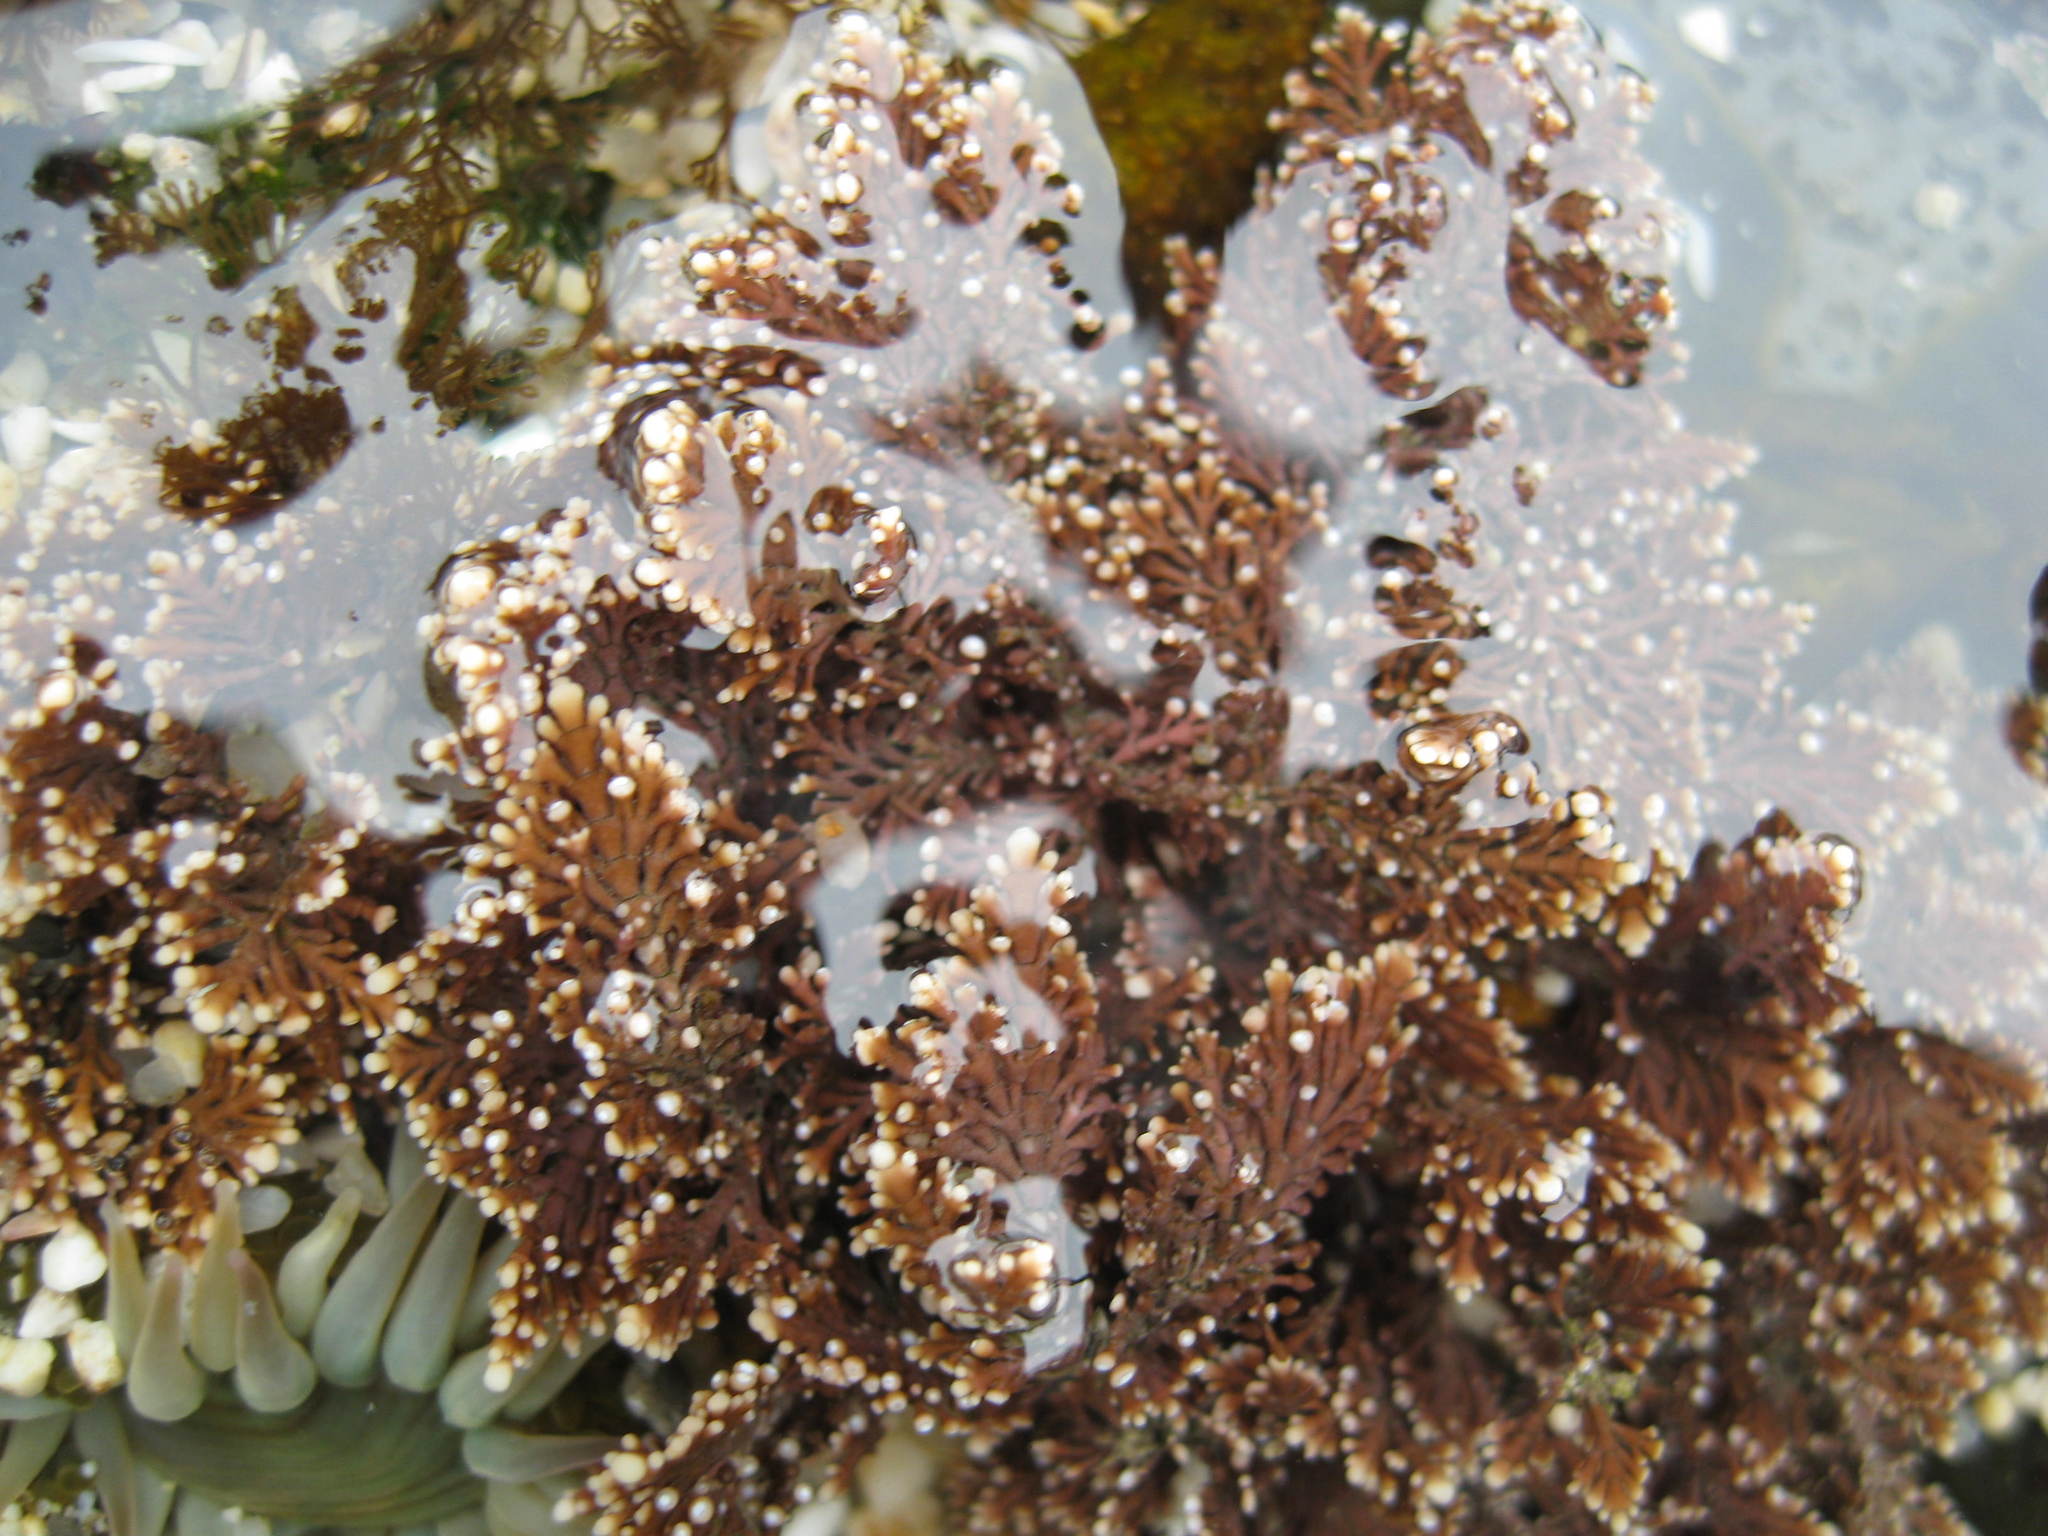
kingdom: Plantae
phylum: Rhodophyta
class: Florideophyceae
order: Corallinales
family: Corallinaceae
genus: Corallina
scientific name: Corallina officinalis
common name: Coral weed
